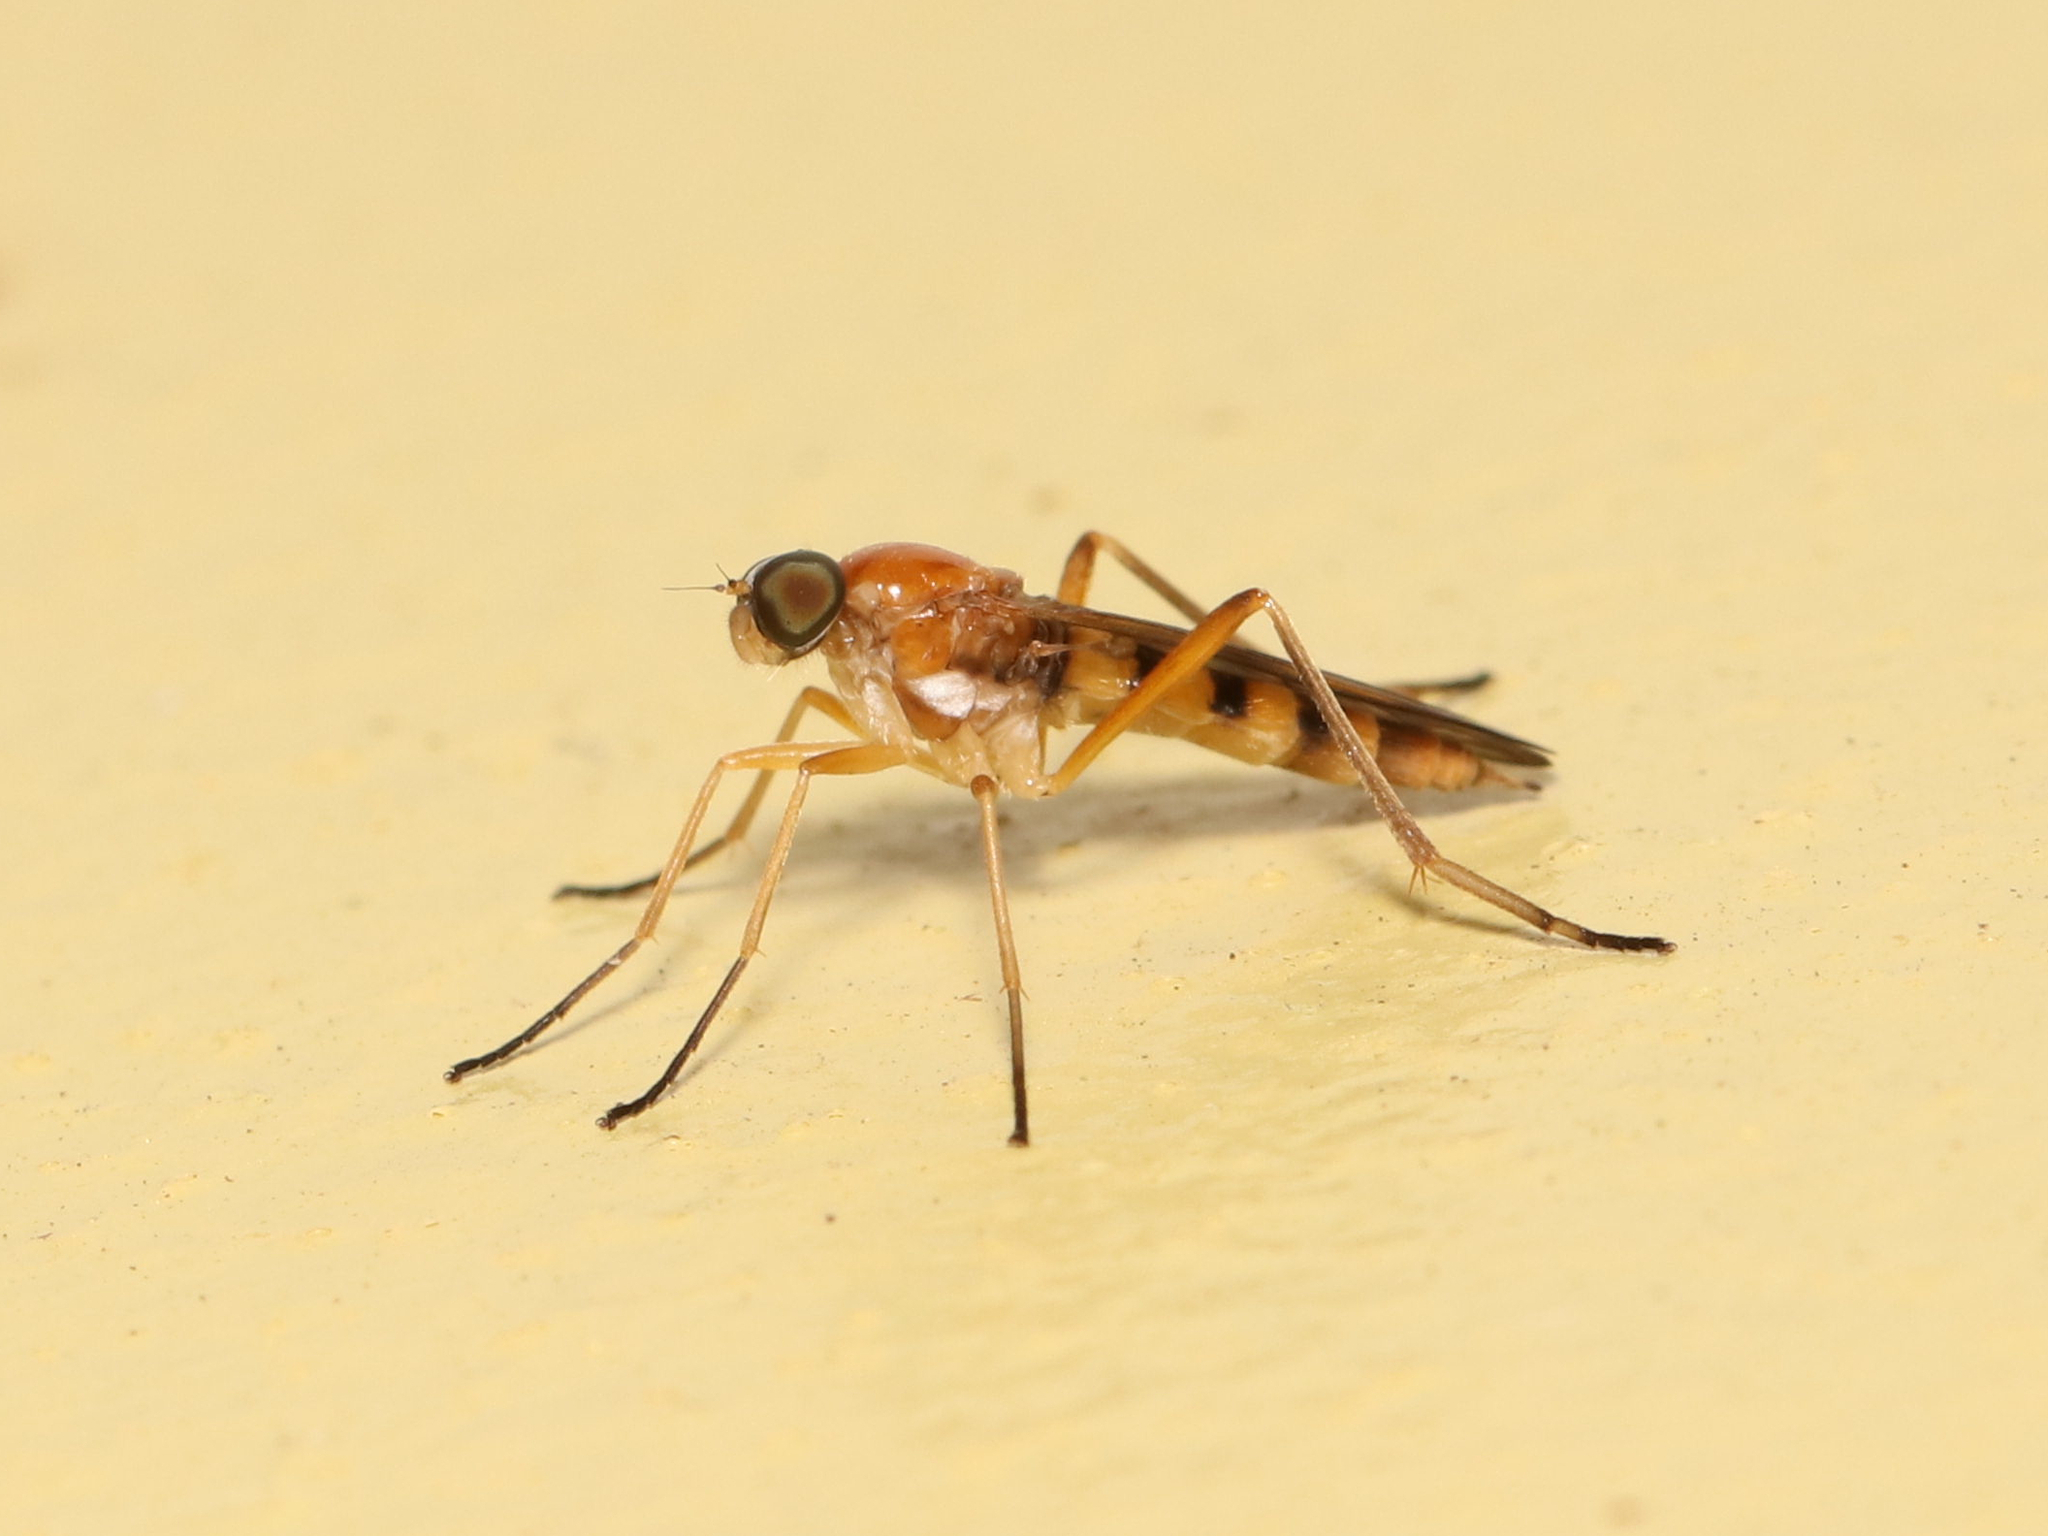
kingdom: Animalia
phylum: Arthropoda
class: Insecta
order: Diptera
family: Xylophagidae
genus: Dialysis
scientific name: Dialysis elongata
